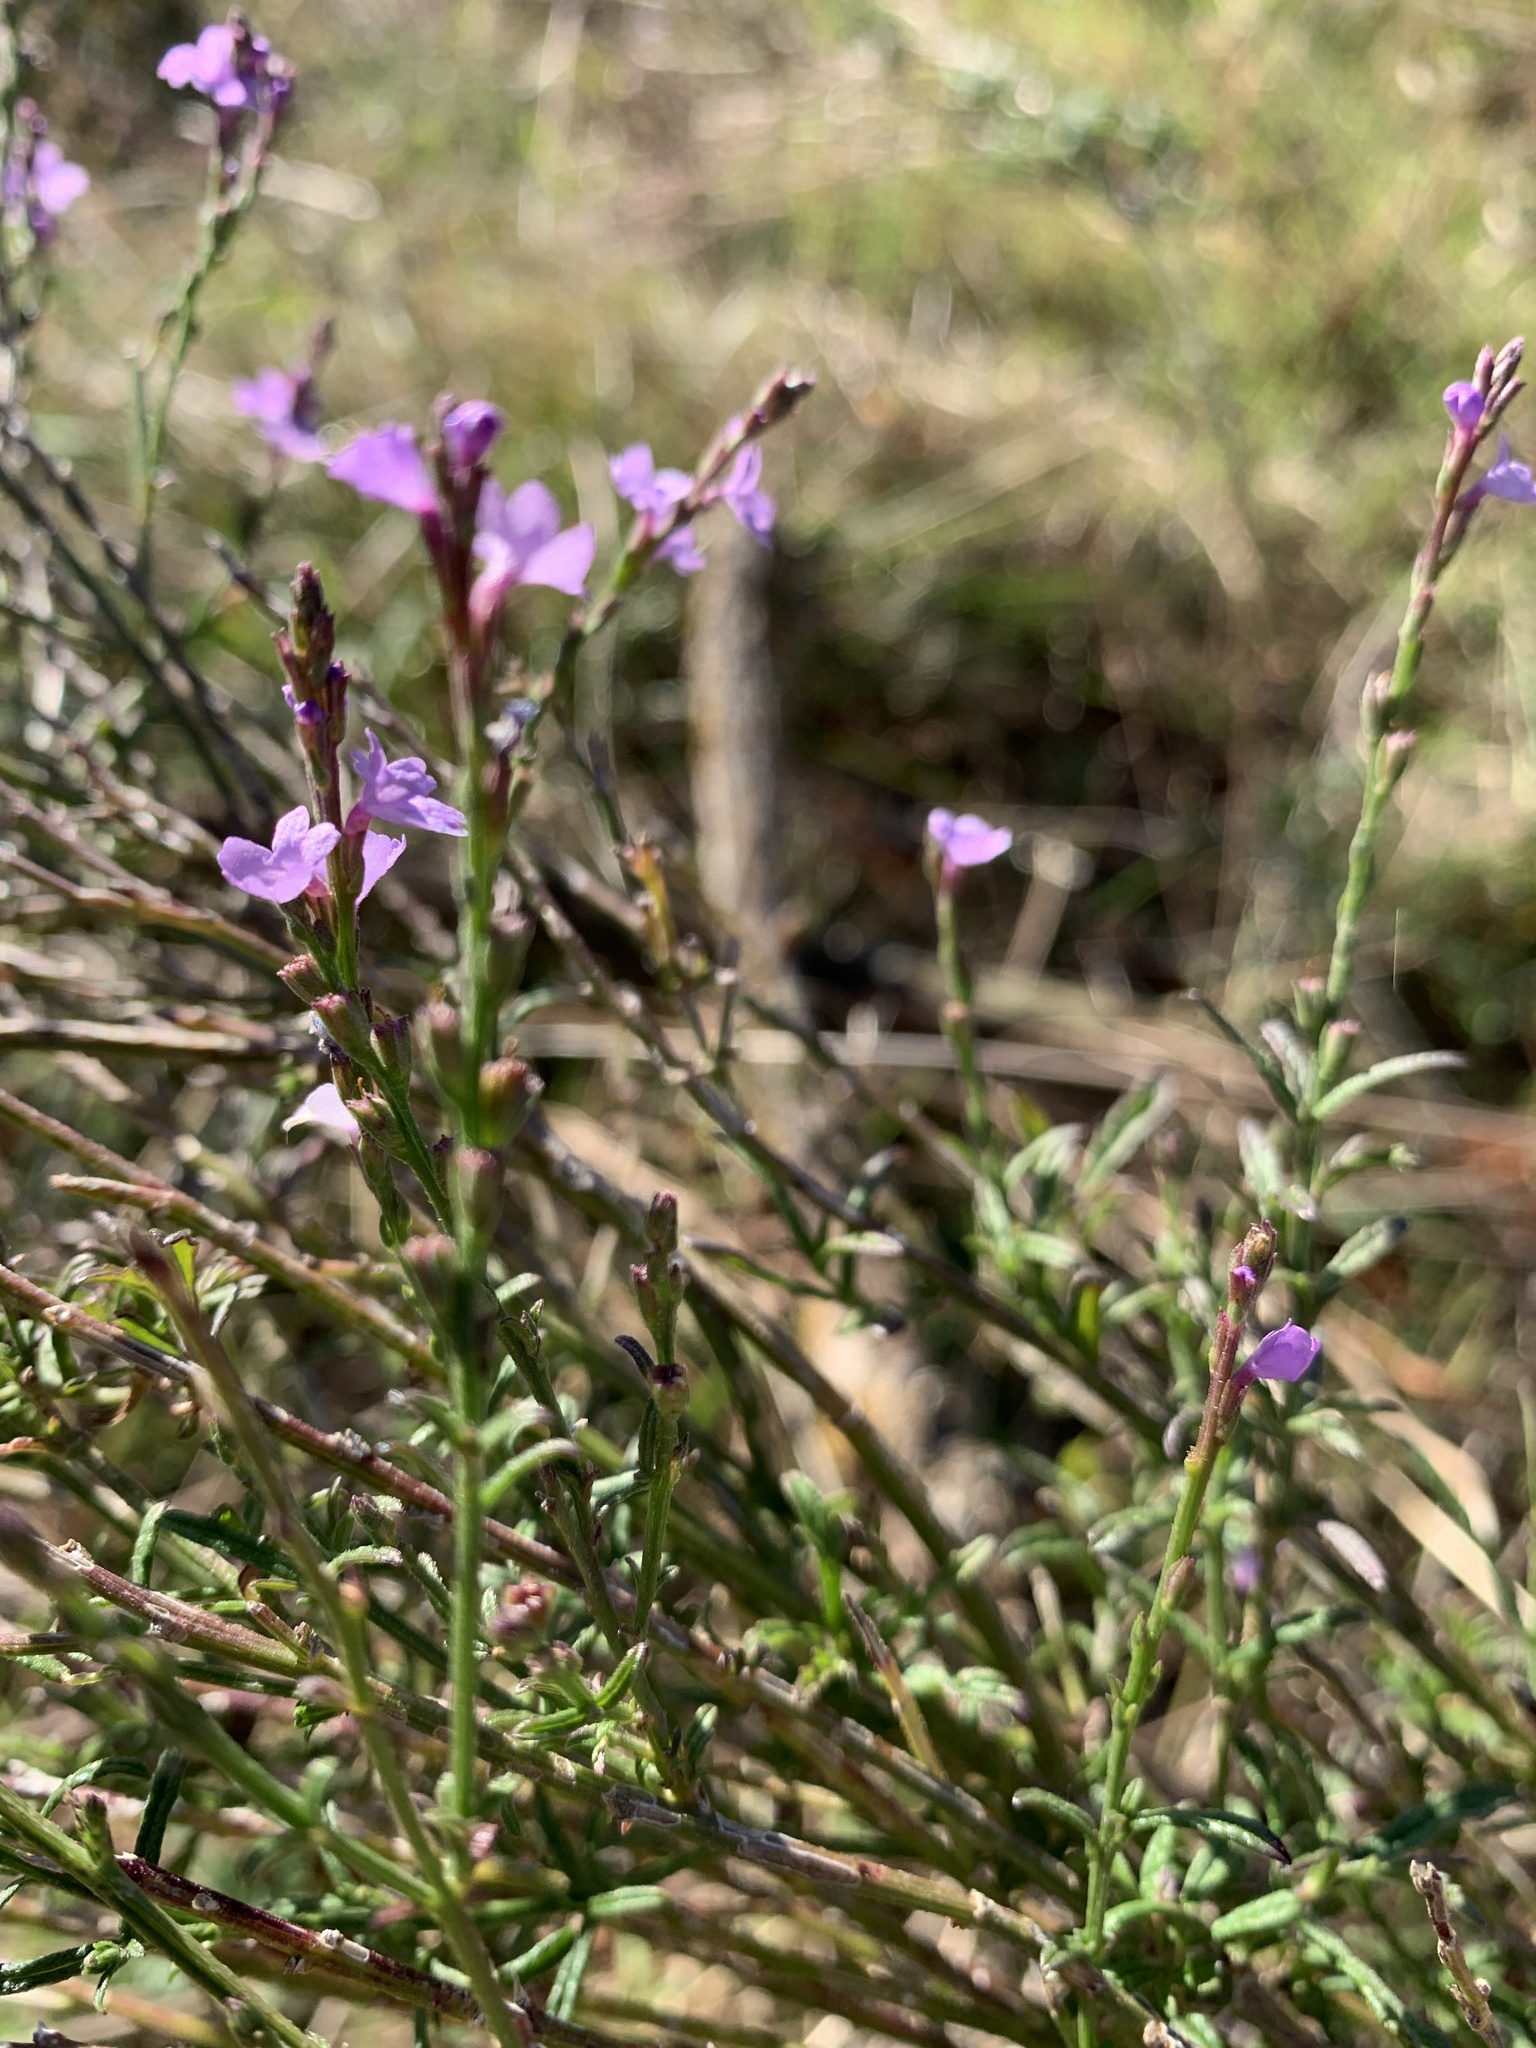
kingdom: Plantae
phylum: Tracheophyta
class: Magnoliopsida
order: Lamiales
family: Verbenaceae
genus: Verbena
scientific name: Verbena halei
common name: Texas vervain
